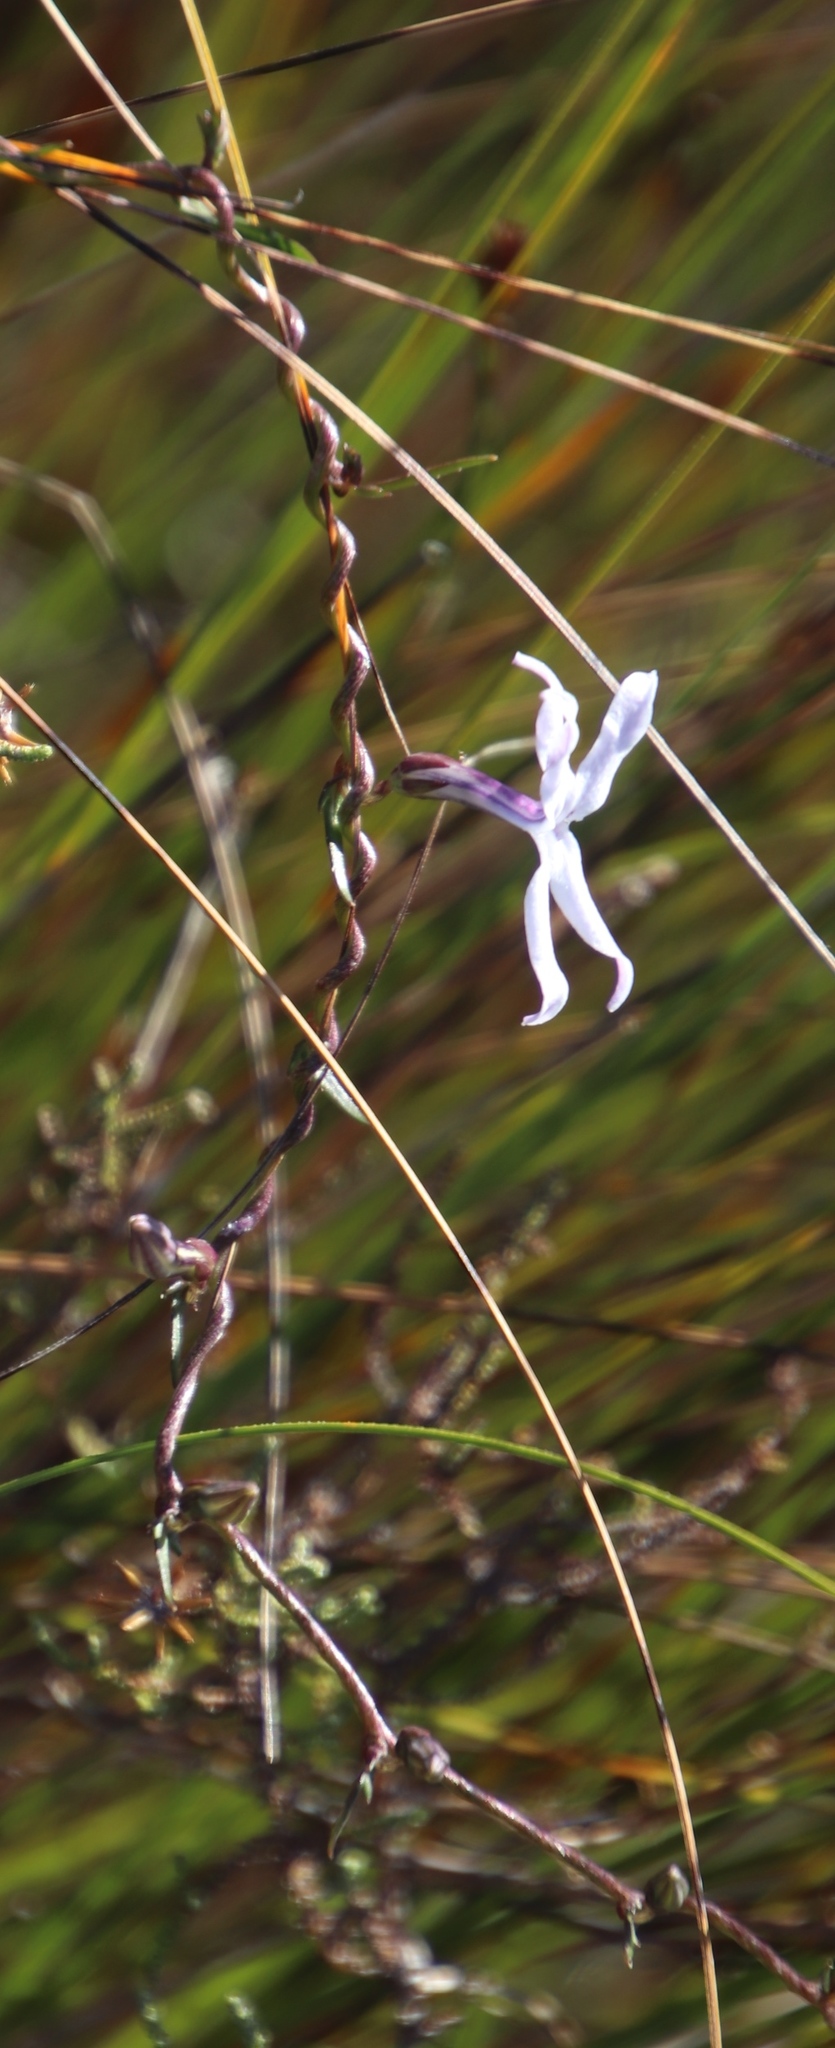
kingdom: Plantae
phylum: Tracheophyta
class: Magnoliopsida
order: Asterales
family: Campanulaceae
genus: Cyphia
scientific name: Cyphia volubilis
